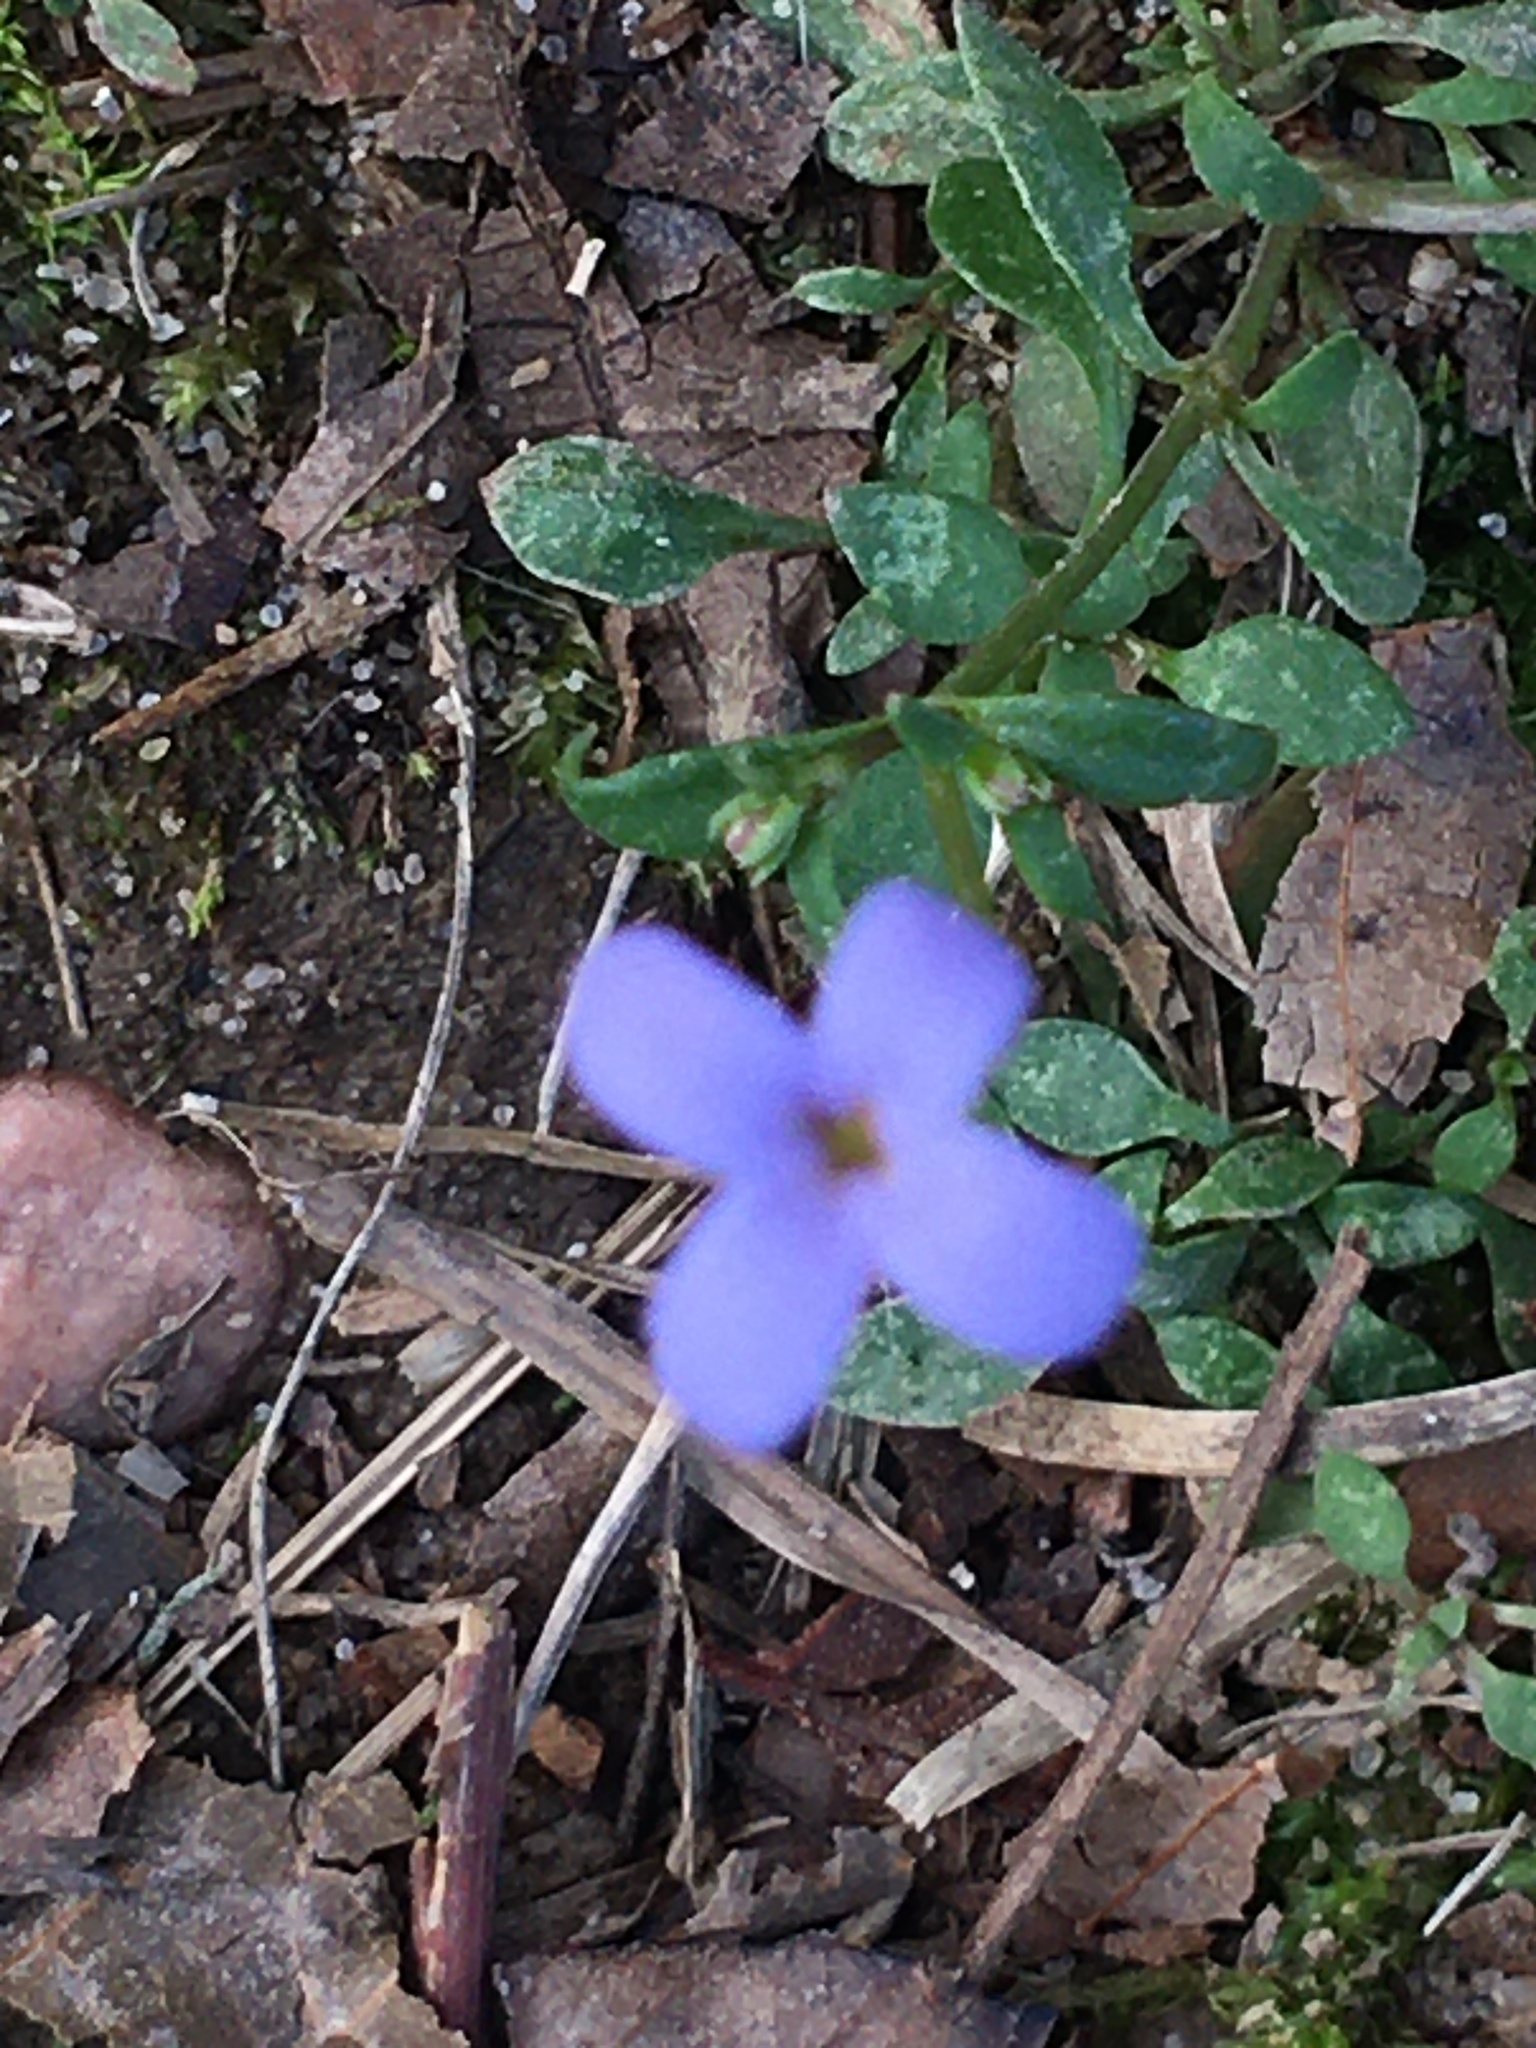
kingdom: Plantae
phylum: Tracheophyta
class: Magnoliopsida
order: Gentianales
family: Rubiaceae
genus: Houstonia
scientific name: Houstonia pusilla
